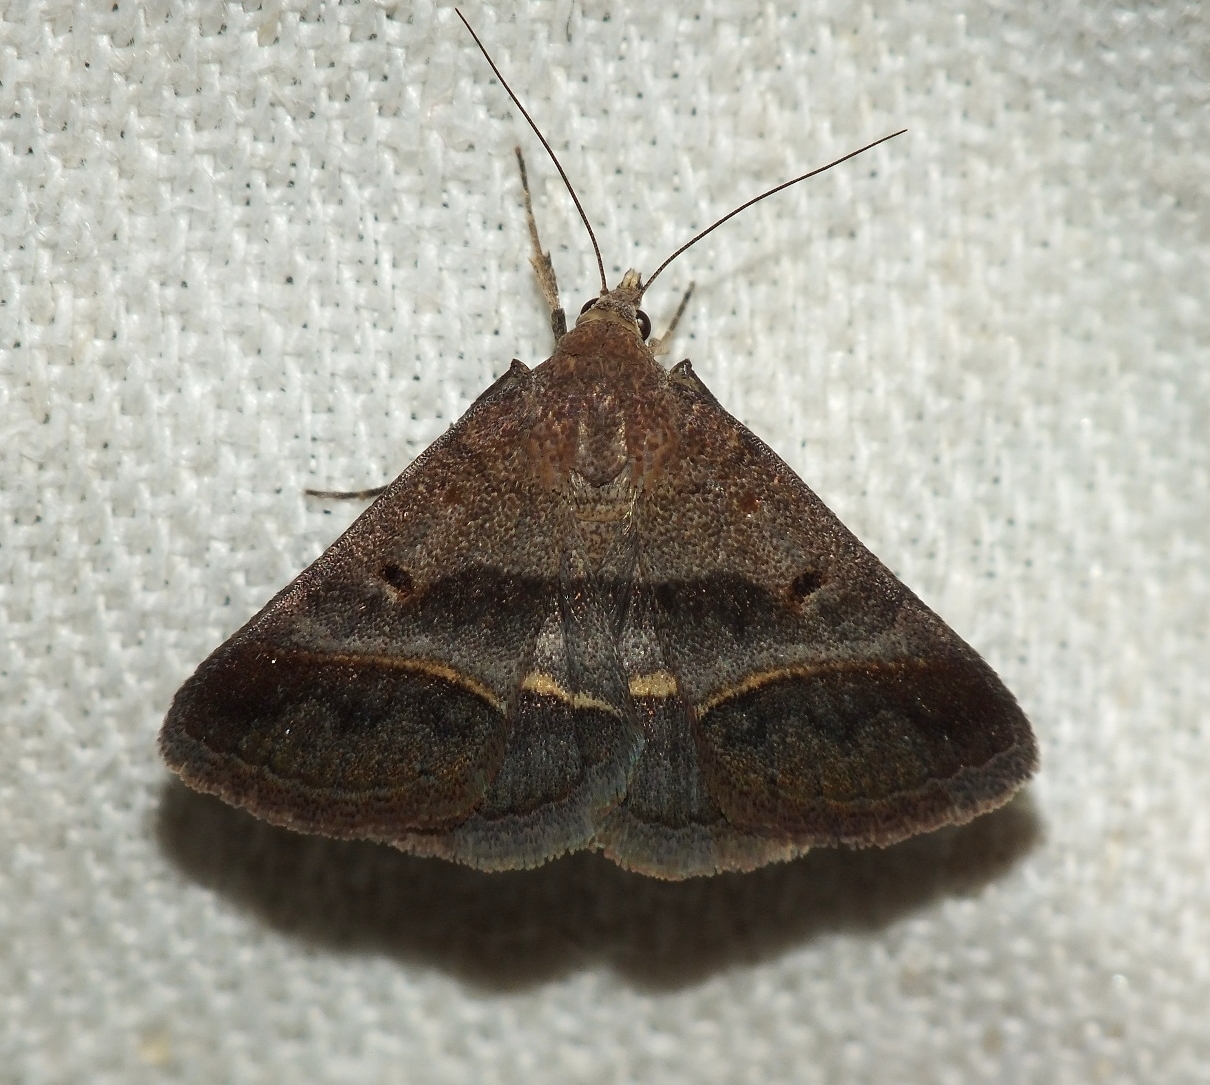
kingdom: Animalia
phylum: Arthropoda
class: Insecta
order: Lepidoptera
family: Erebidae
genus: Acantholipes
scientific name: Acantholipes regularis
